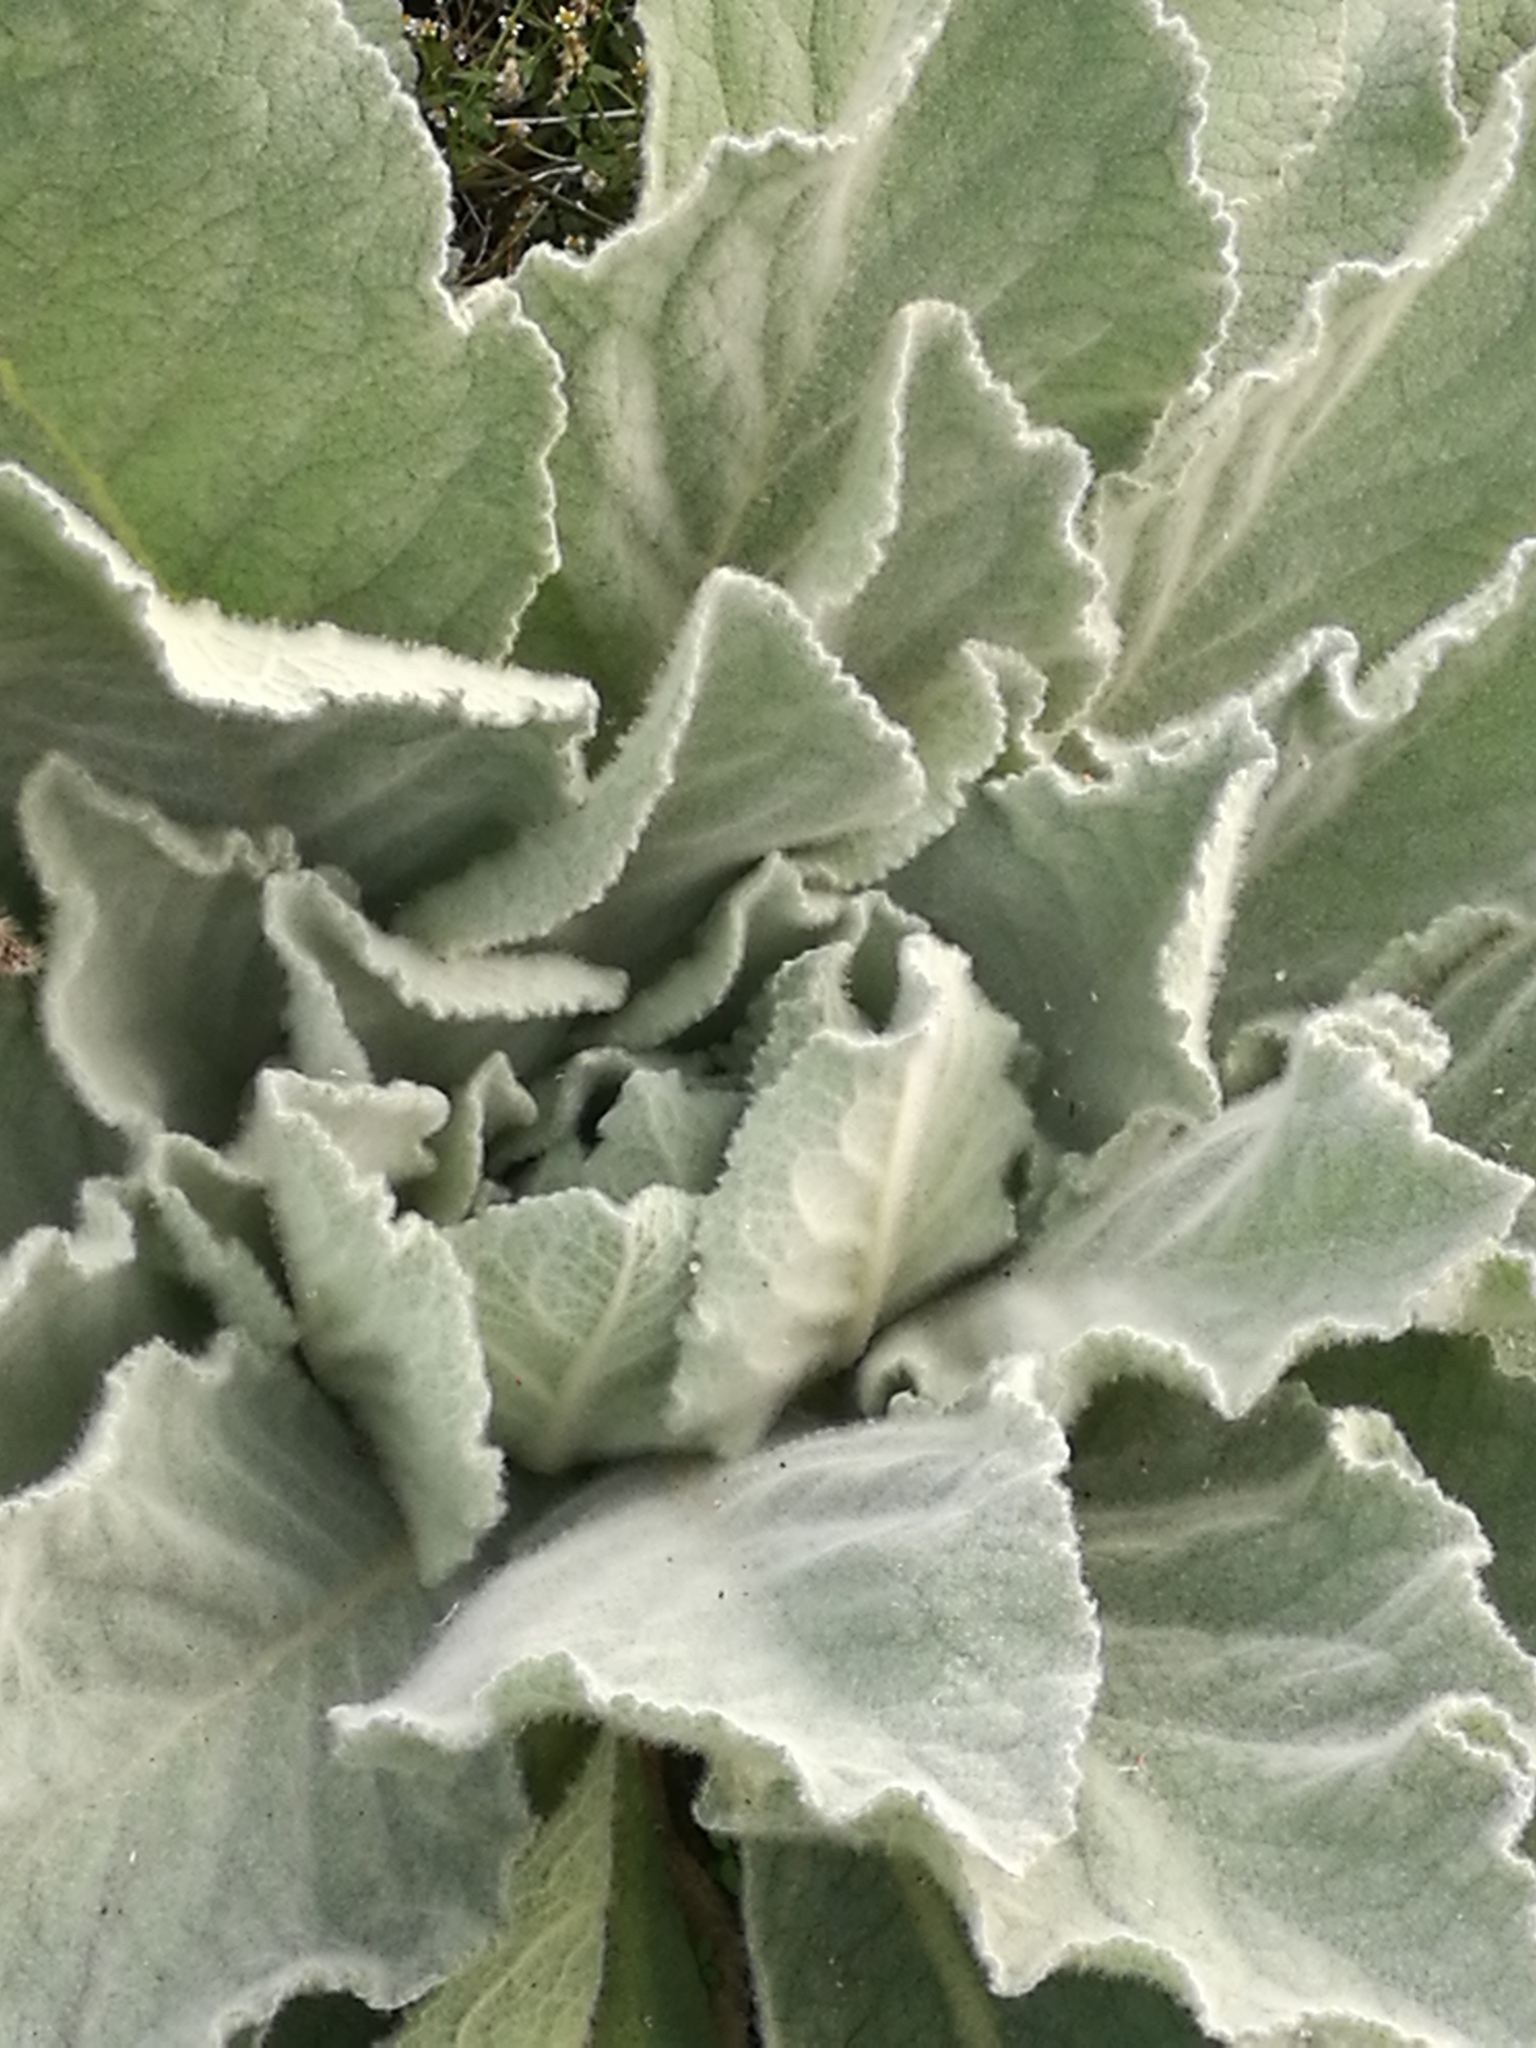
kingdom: Plantae
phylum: Tracheophyta
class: Magnoliopsida
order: Lamiales
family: Scrophulariaceae
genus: Verbascum
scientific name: Verbascum thapsus
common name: Common mullein
